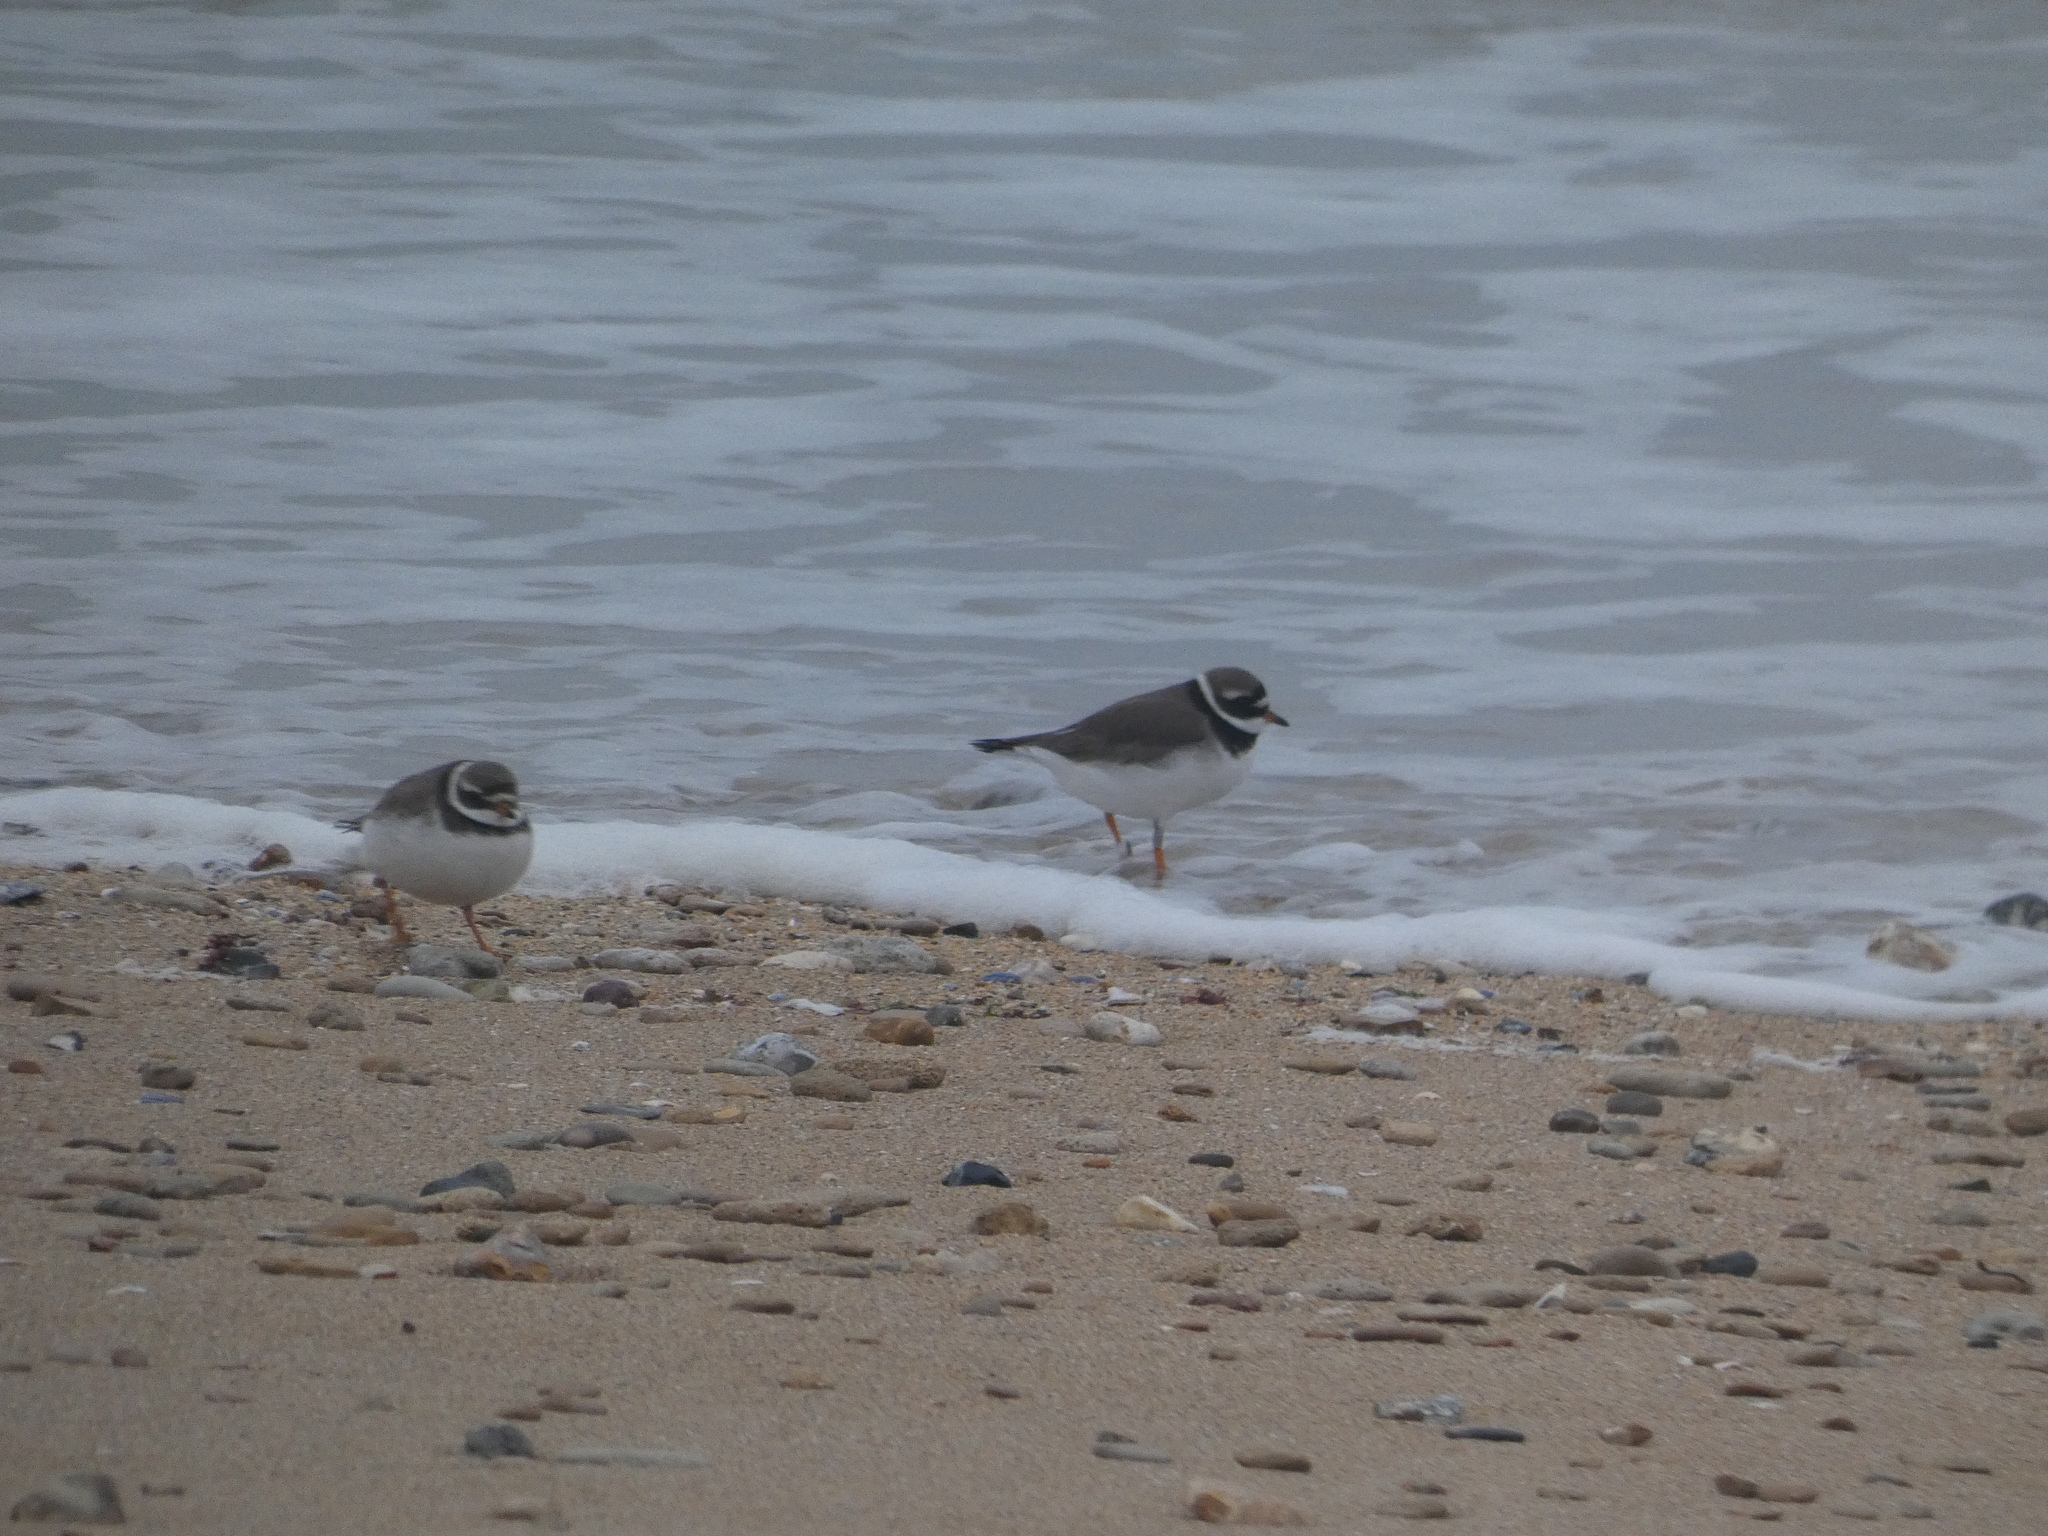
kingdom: Animalia
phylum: Chordata
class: Aves
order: Charadriiformes
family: Charadriidae
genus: Charadrius
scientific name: Charadrius hiaticula
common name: Common ringed plover
